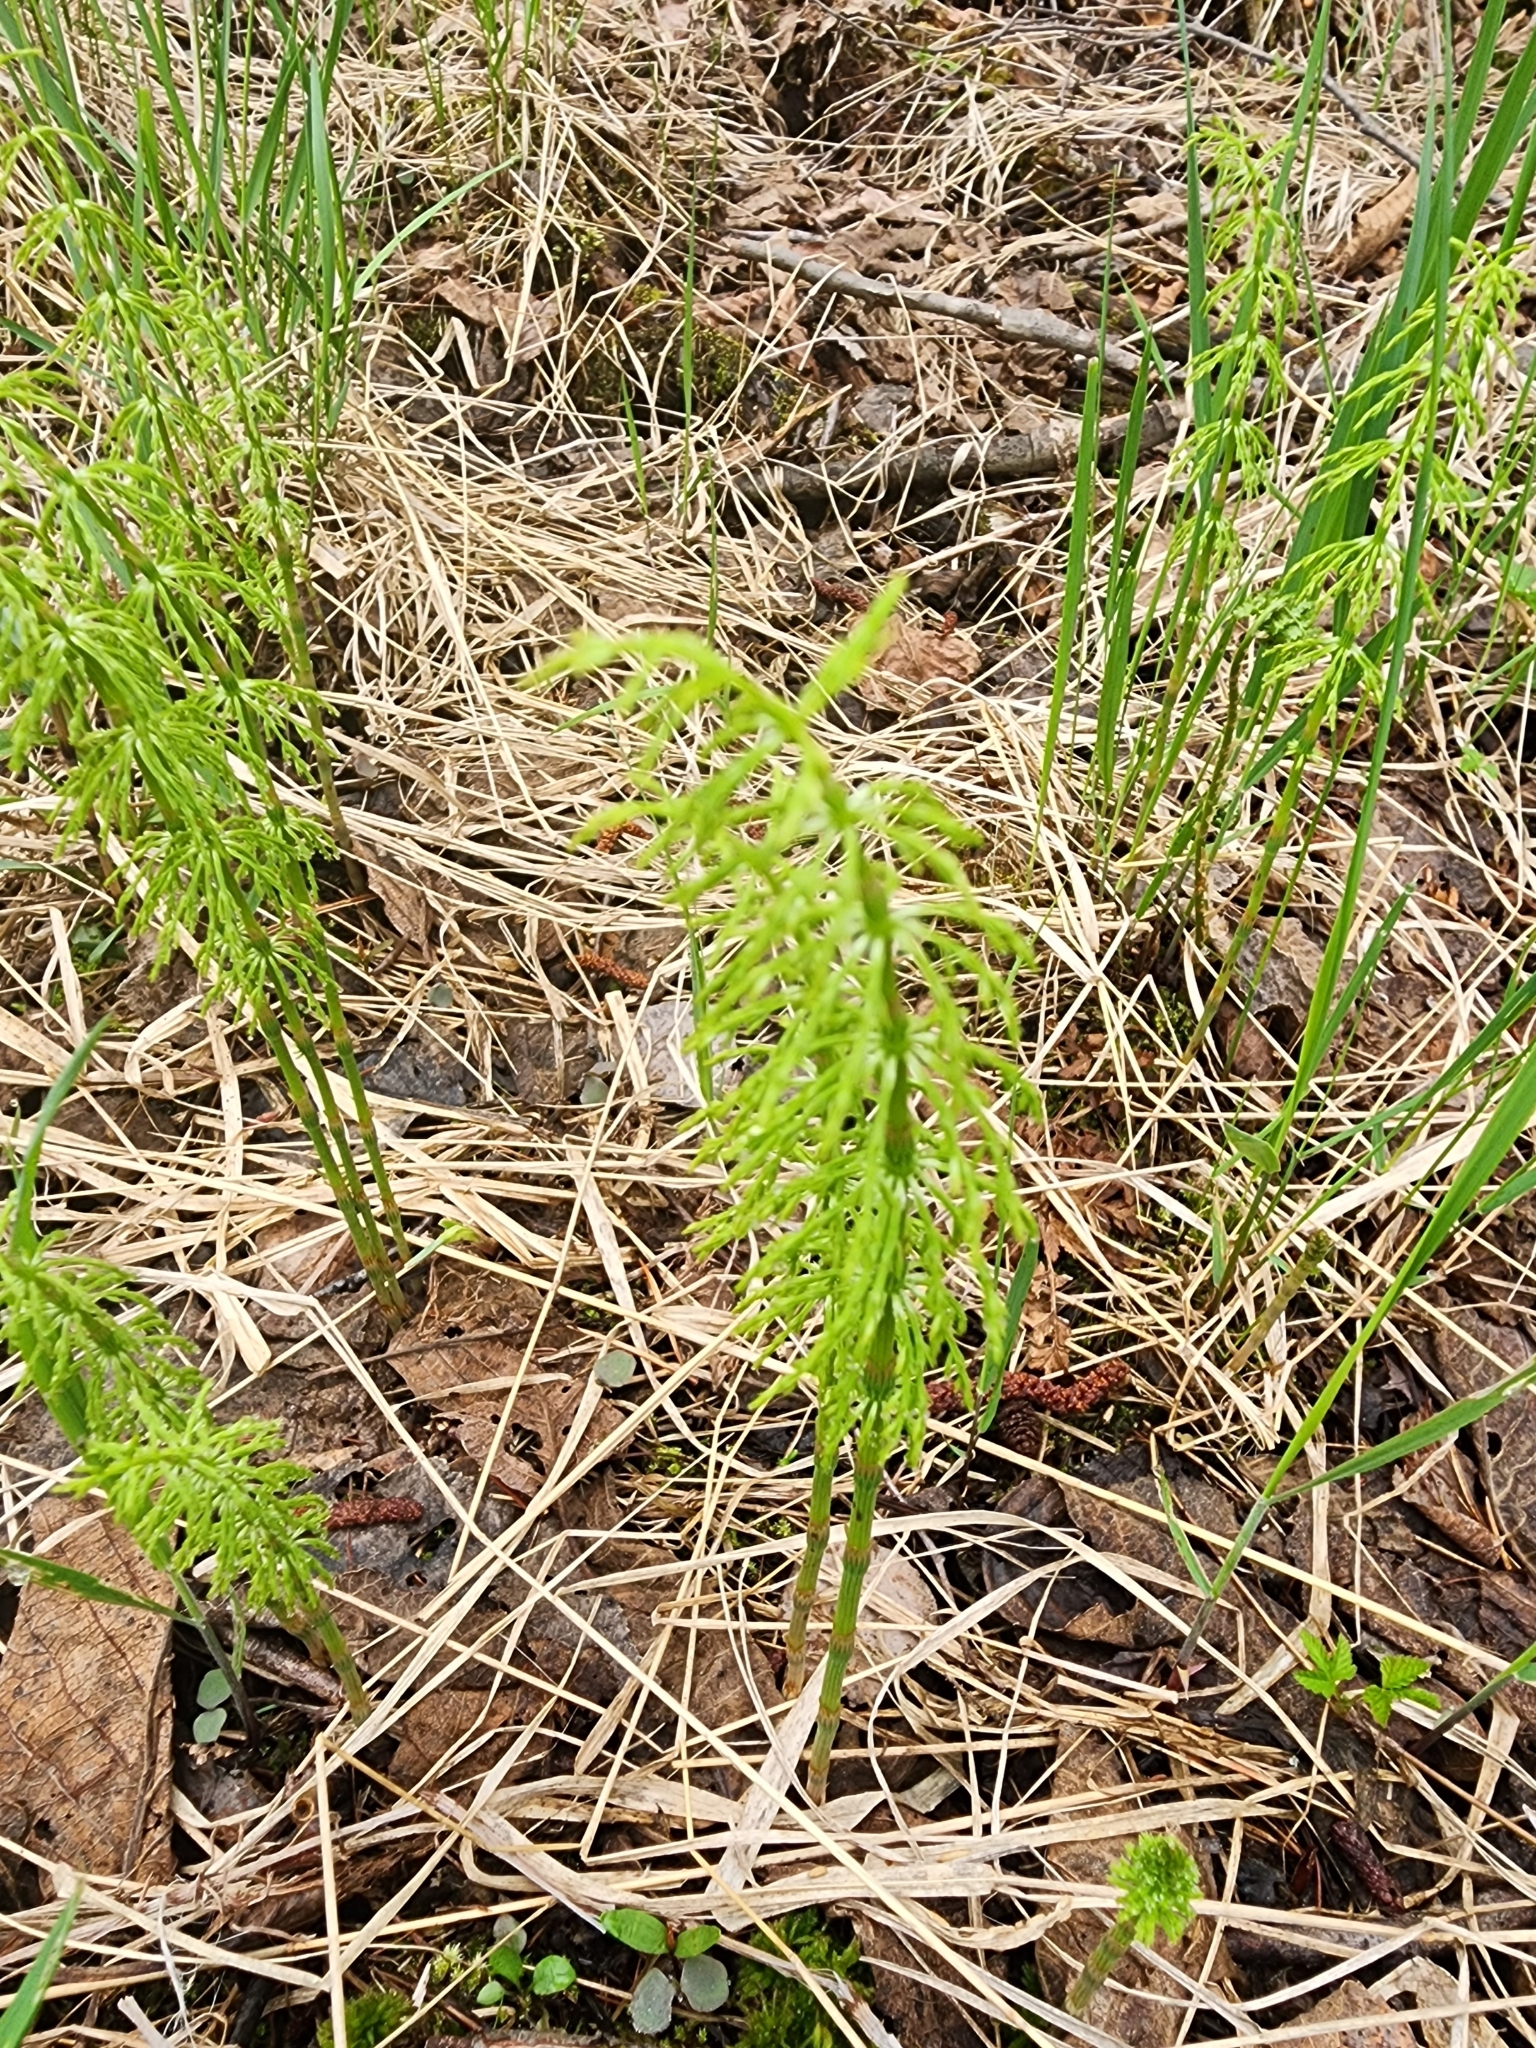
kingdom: Plantae
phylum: Tracheophyta
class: Polypodiopsida
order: Equisetales
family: Equisetaceae
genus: Equisetum
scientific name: Equisetum sylvaticum
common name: Wood horsetail
